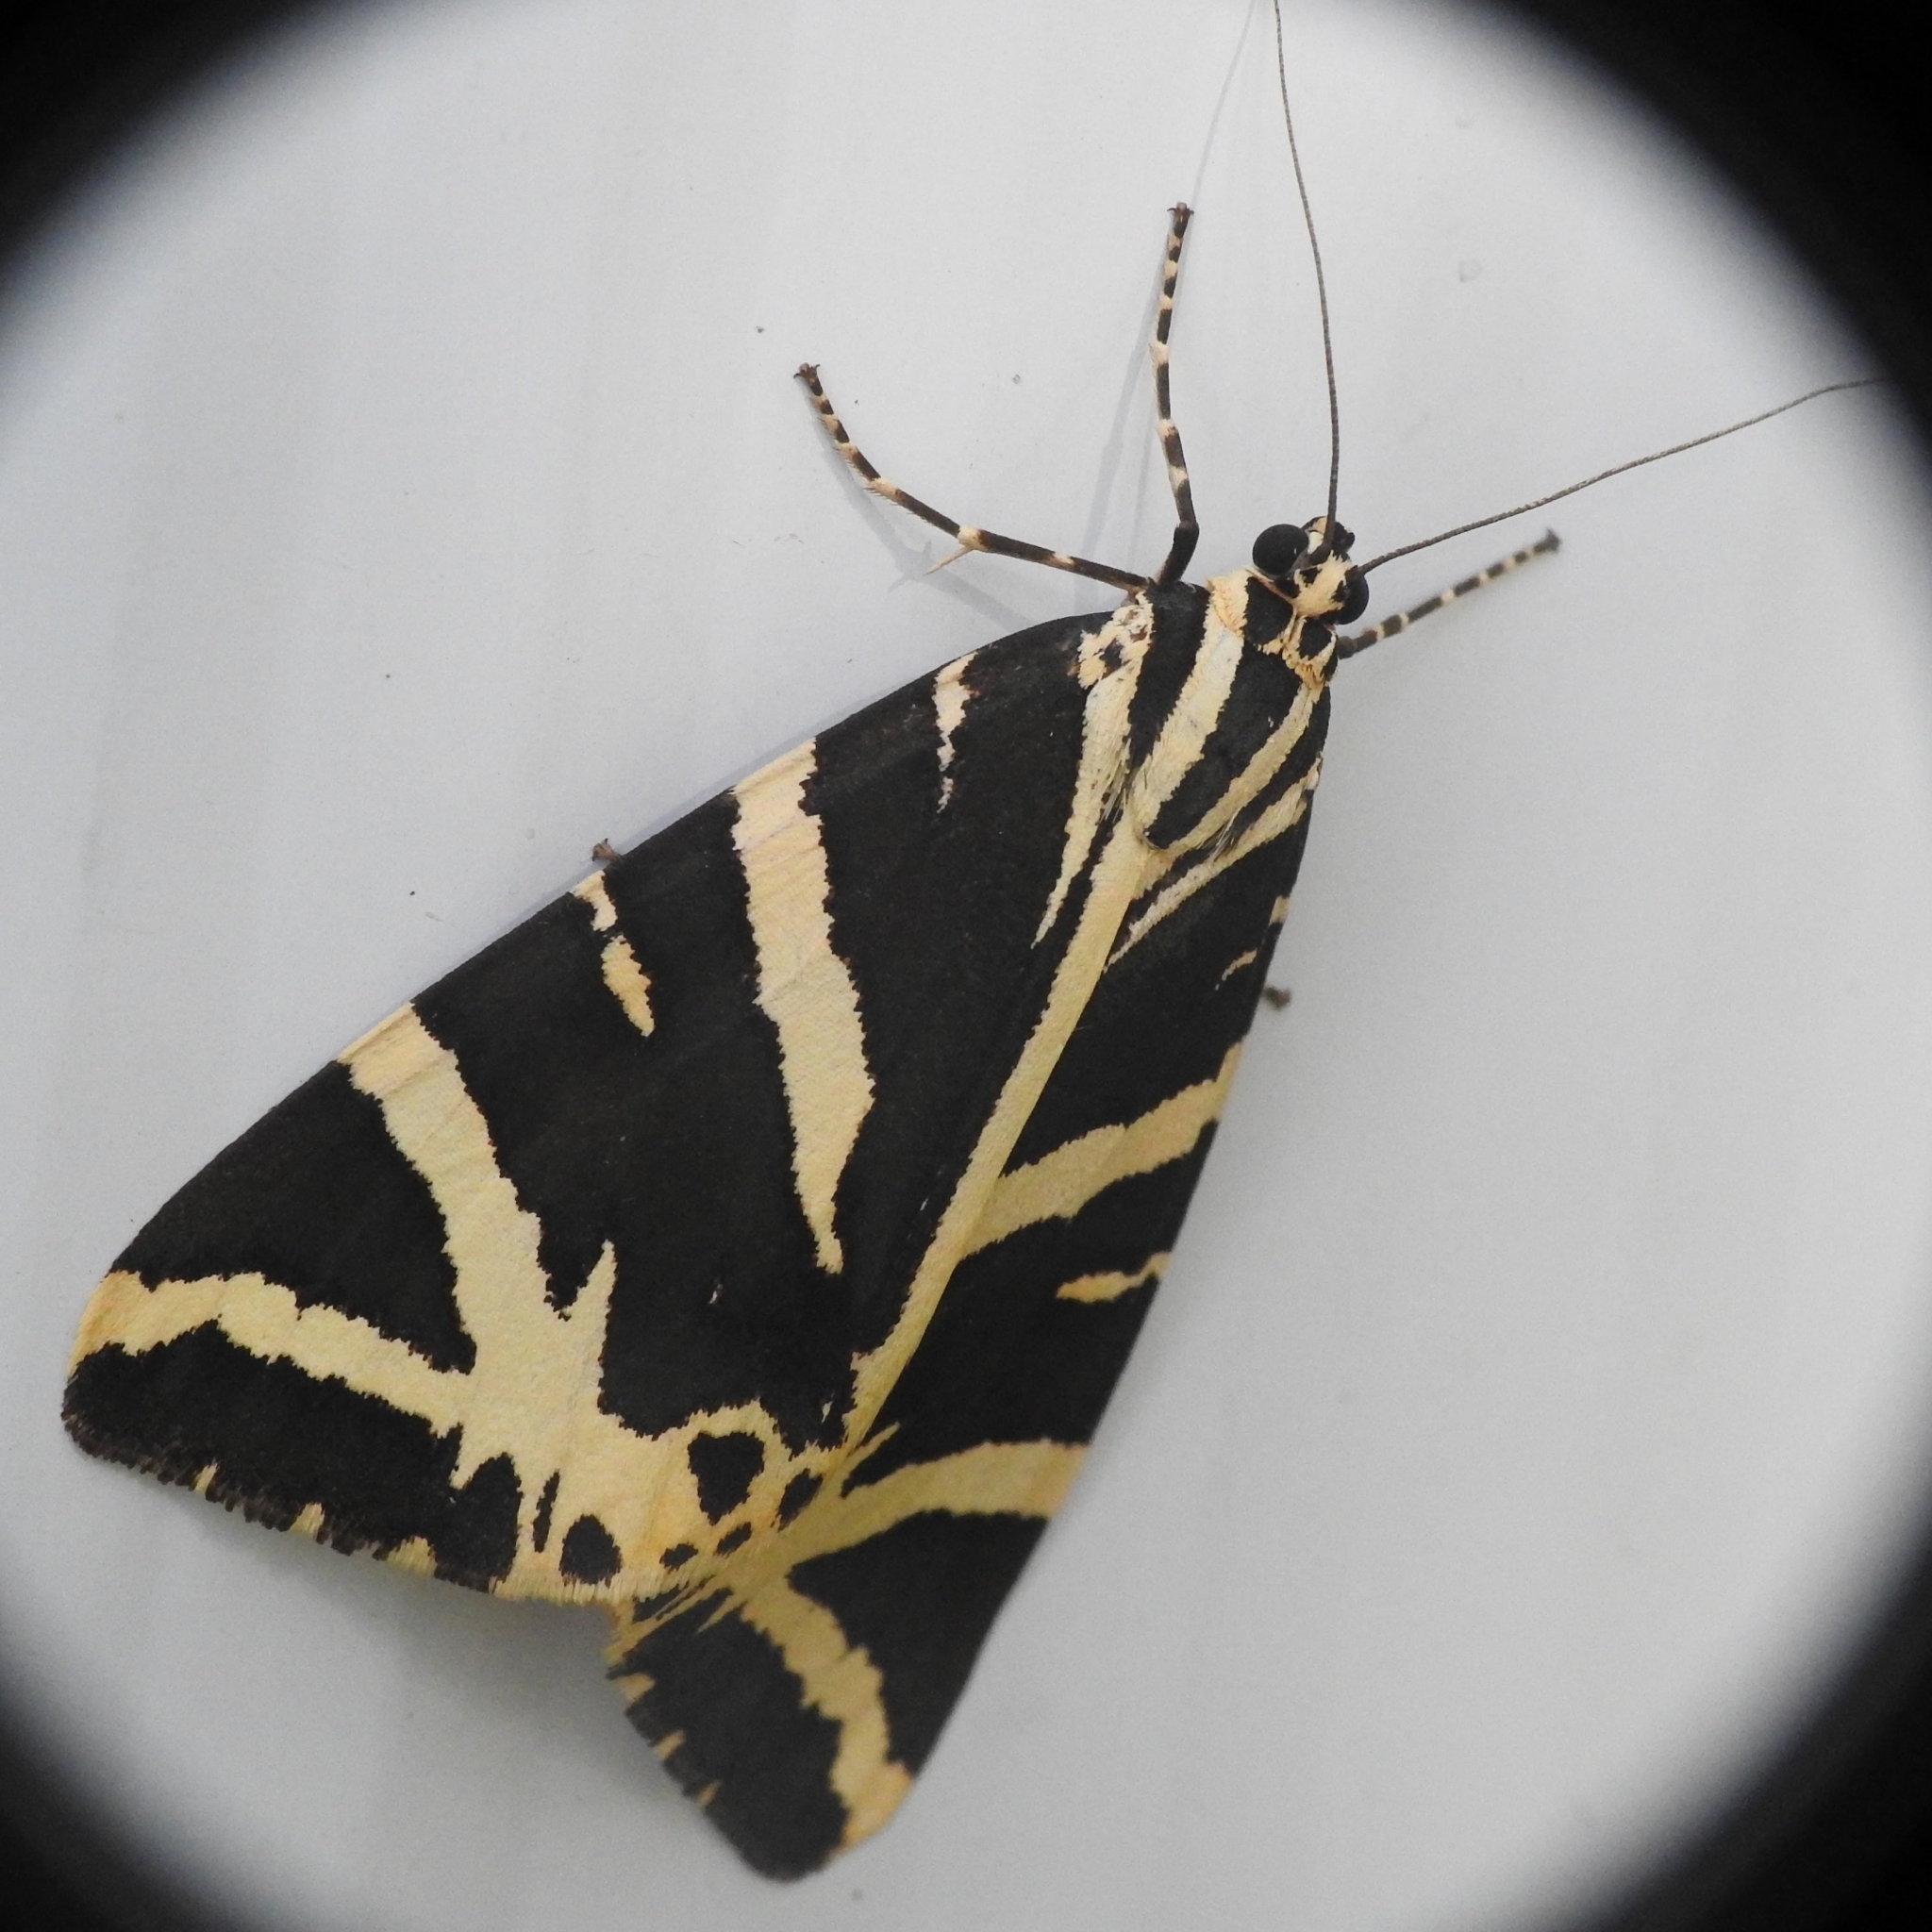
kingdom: Animalia
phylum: Arthropoda
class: Insecta
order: Lepidoptera
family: Erebidae
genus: Euplagia
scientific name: Euplagia quadripunctaria
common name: Jersey tiger
